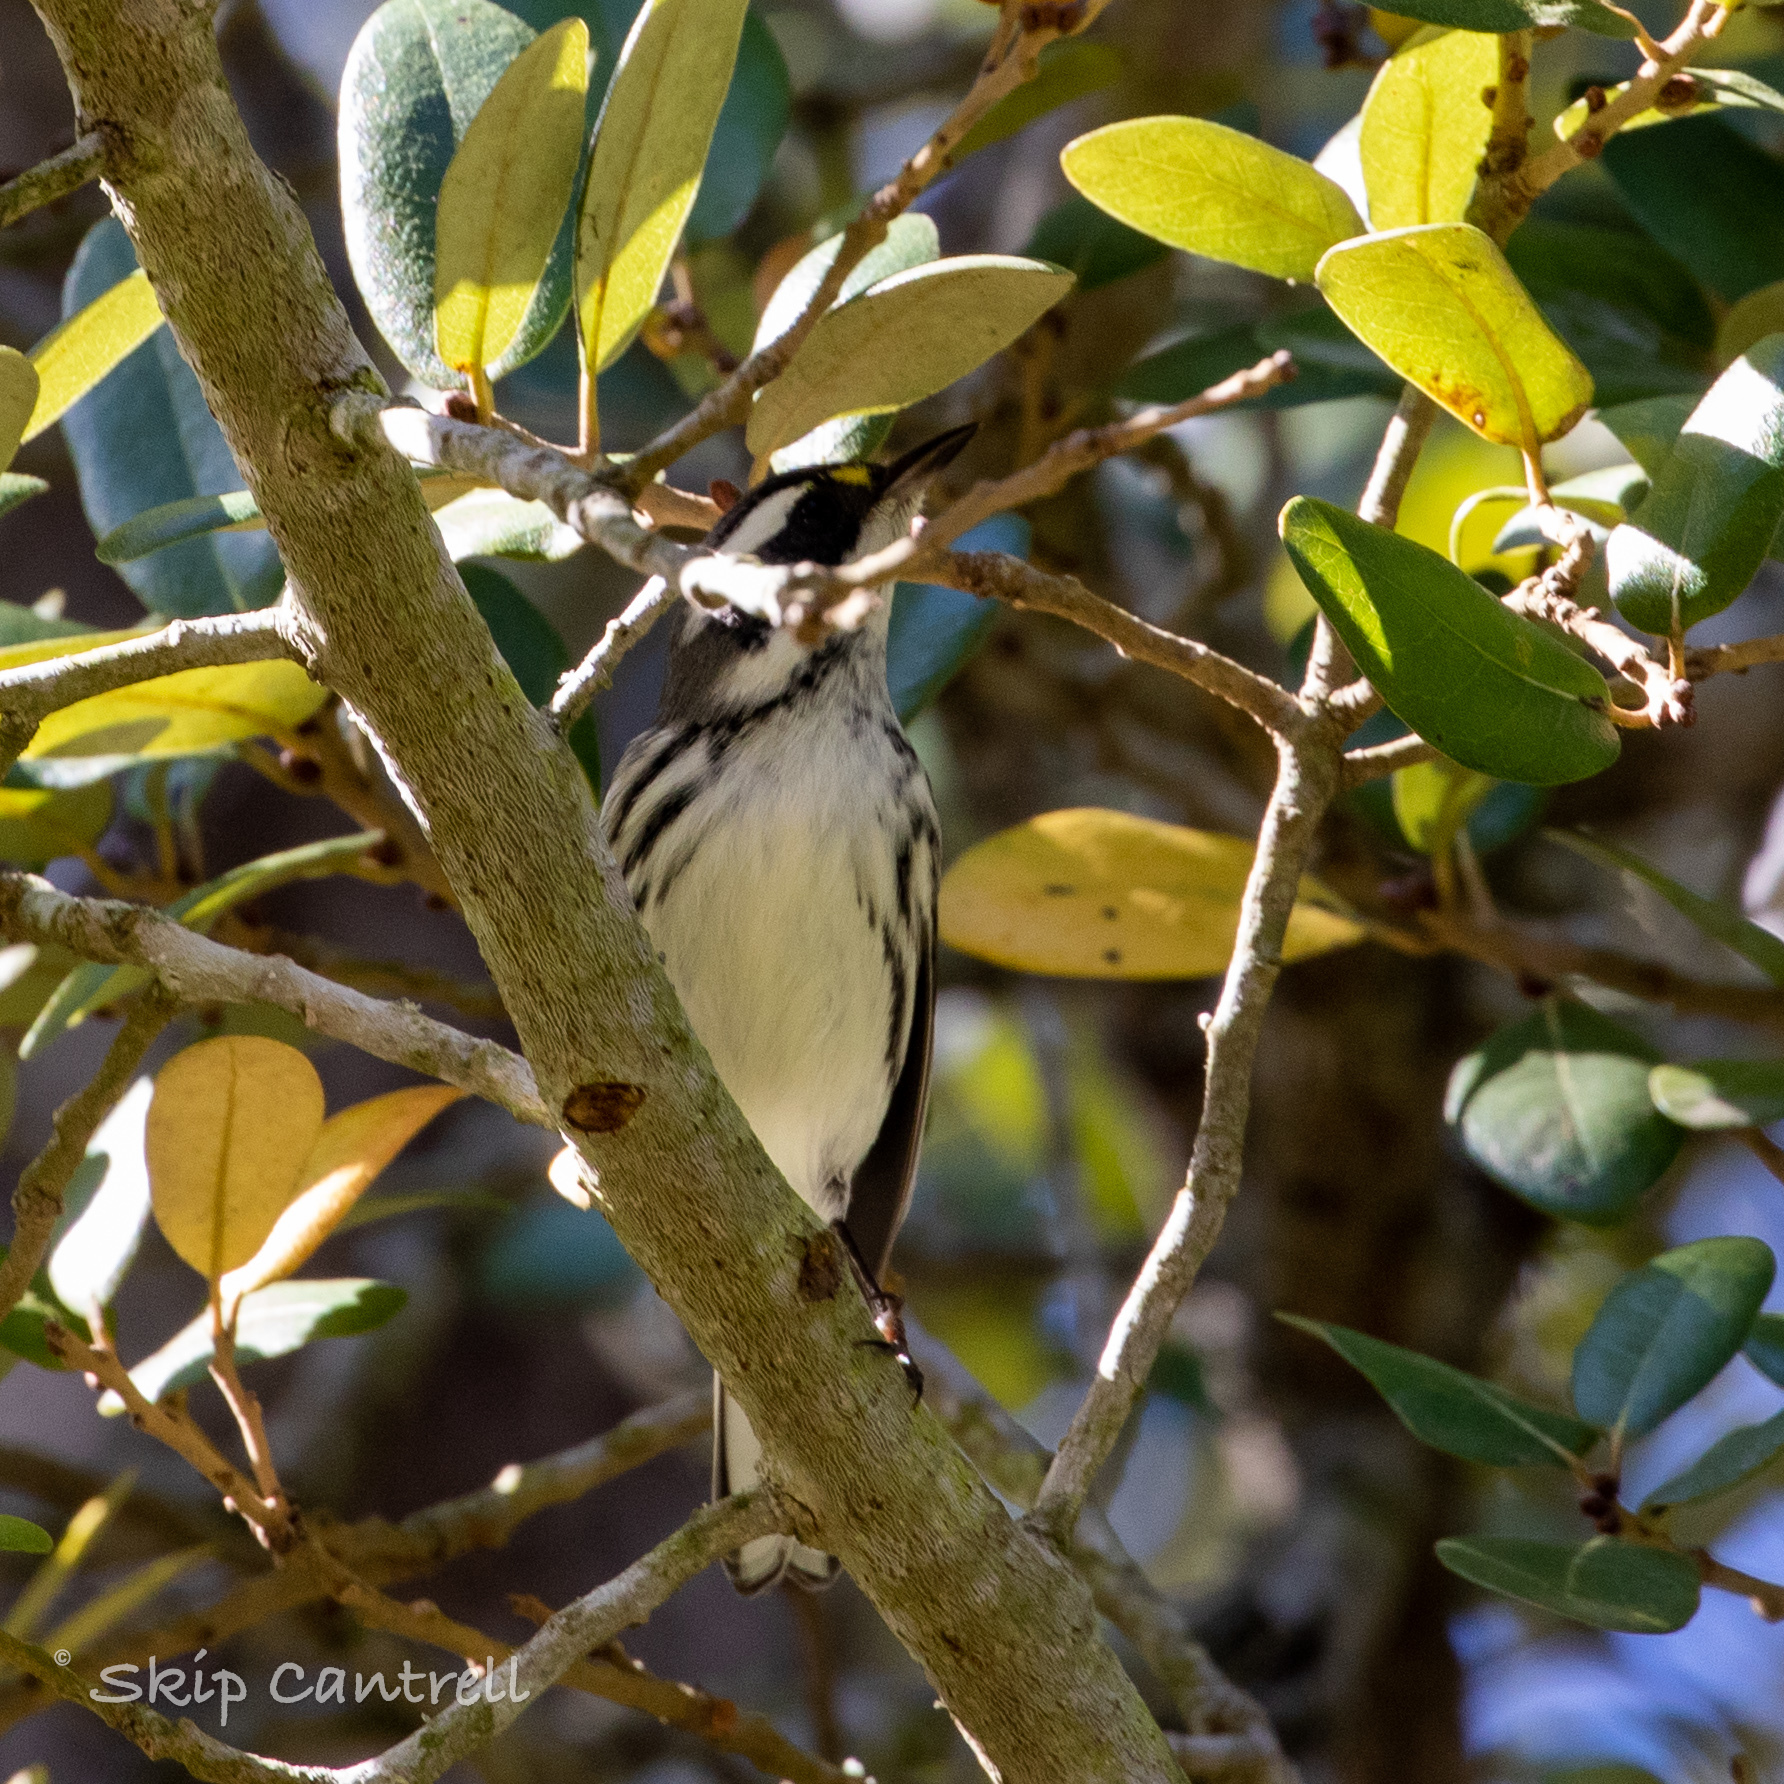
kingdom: Animalia
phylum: Chordata
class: Aves
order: Passeriformes
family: Parulidae
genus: Setophaga
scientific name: Setophaga nigrescens
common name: Black-throated gray warbler
